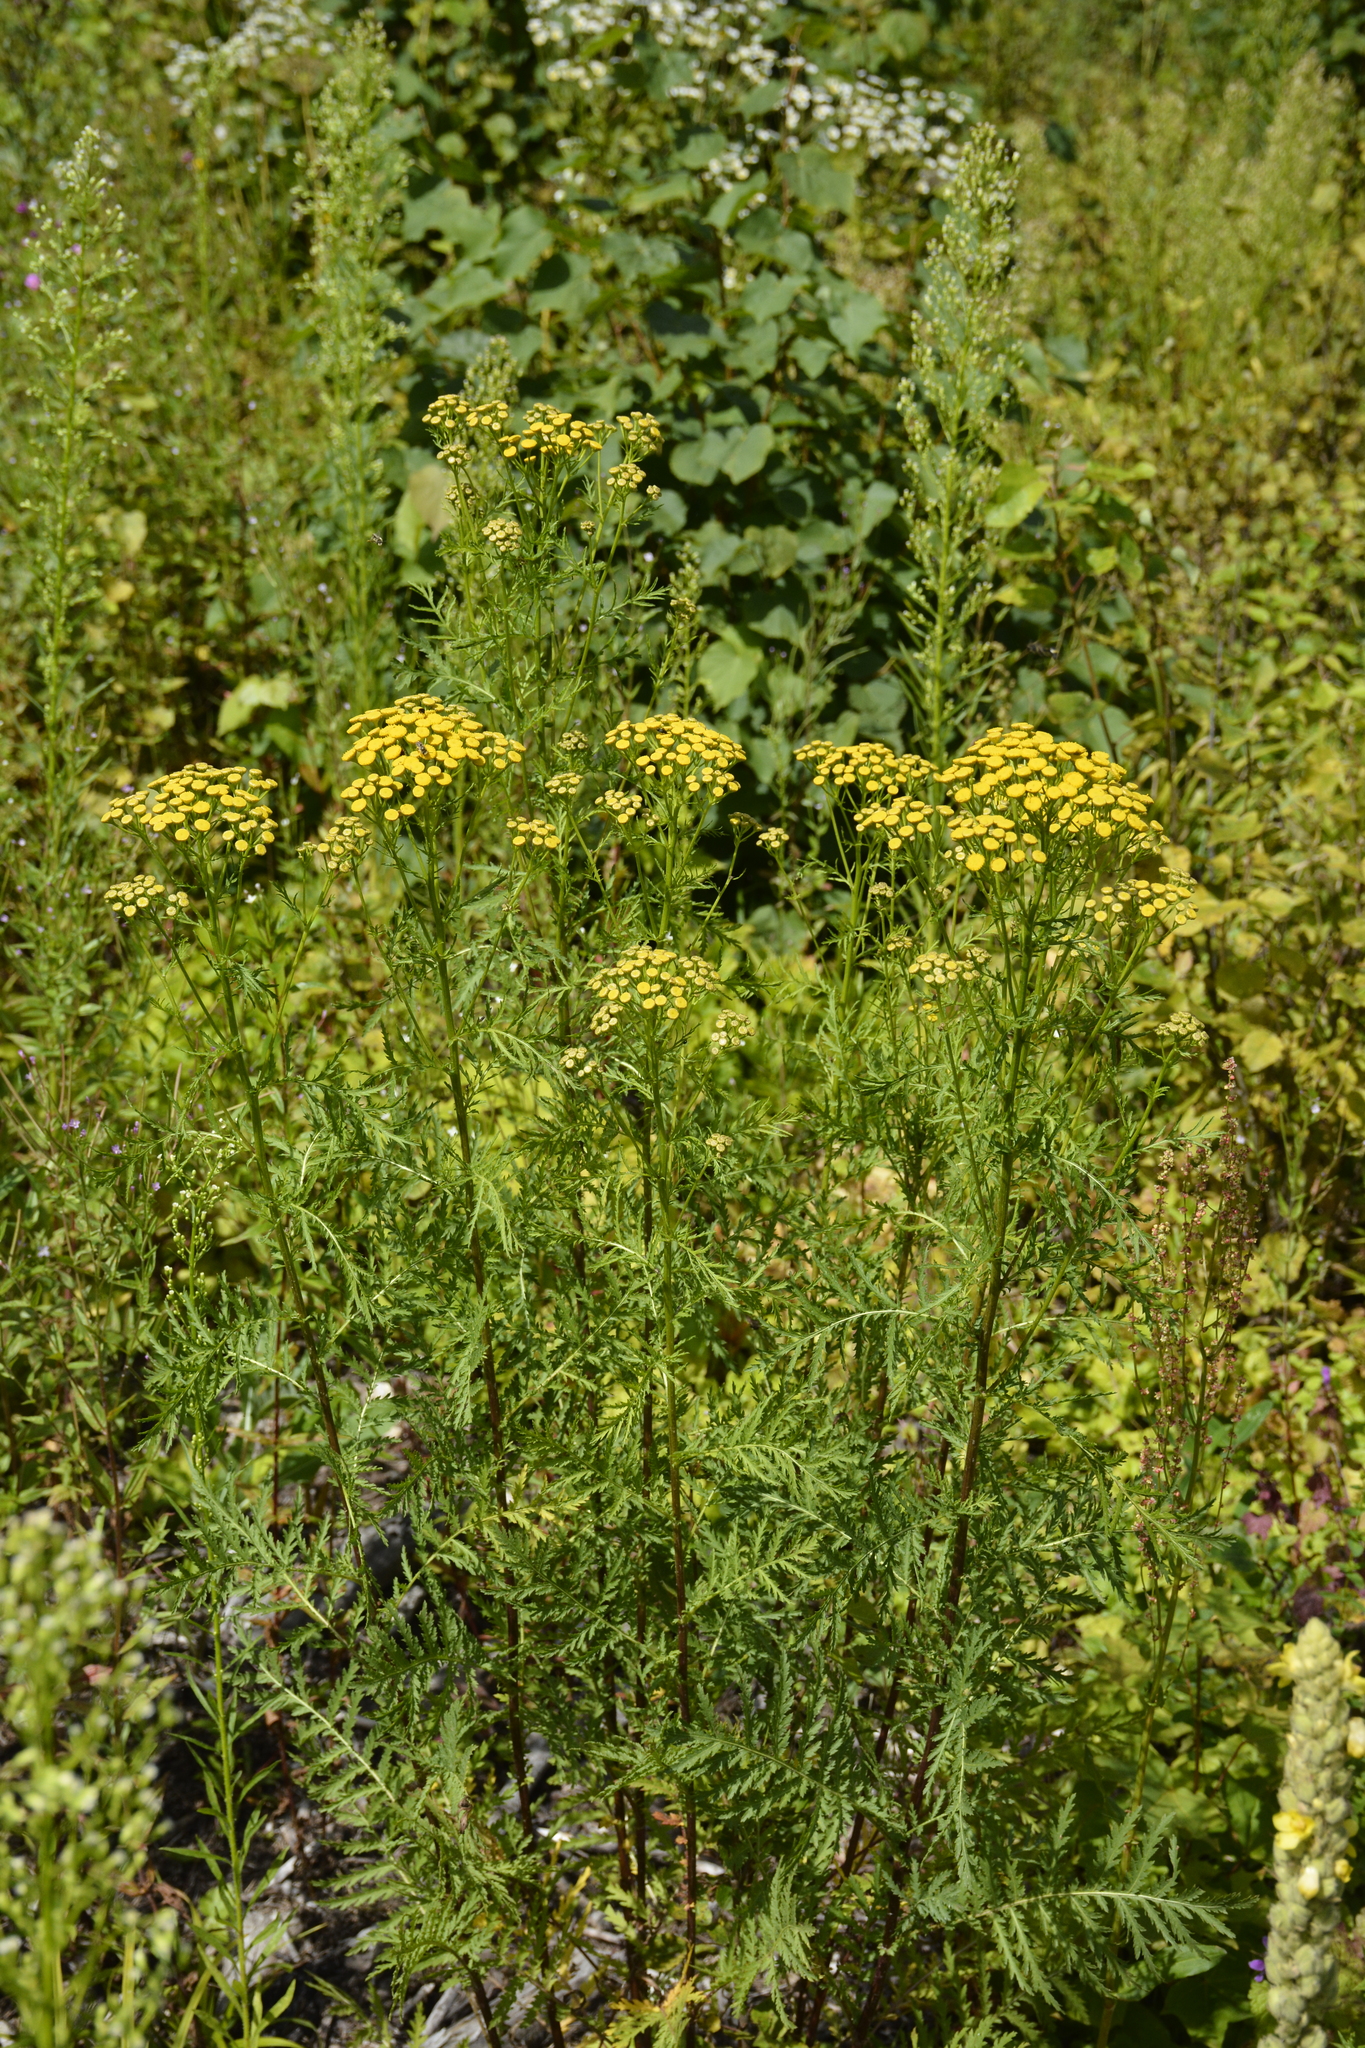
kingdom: Plantae
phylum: Tracheophyta
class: Magnoliopsida
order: Asterales
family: Asteraceae
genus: Tanacetum
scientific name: Tanacetum vulgare
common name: Common tansy
